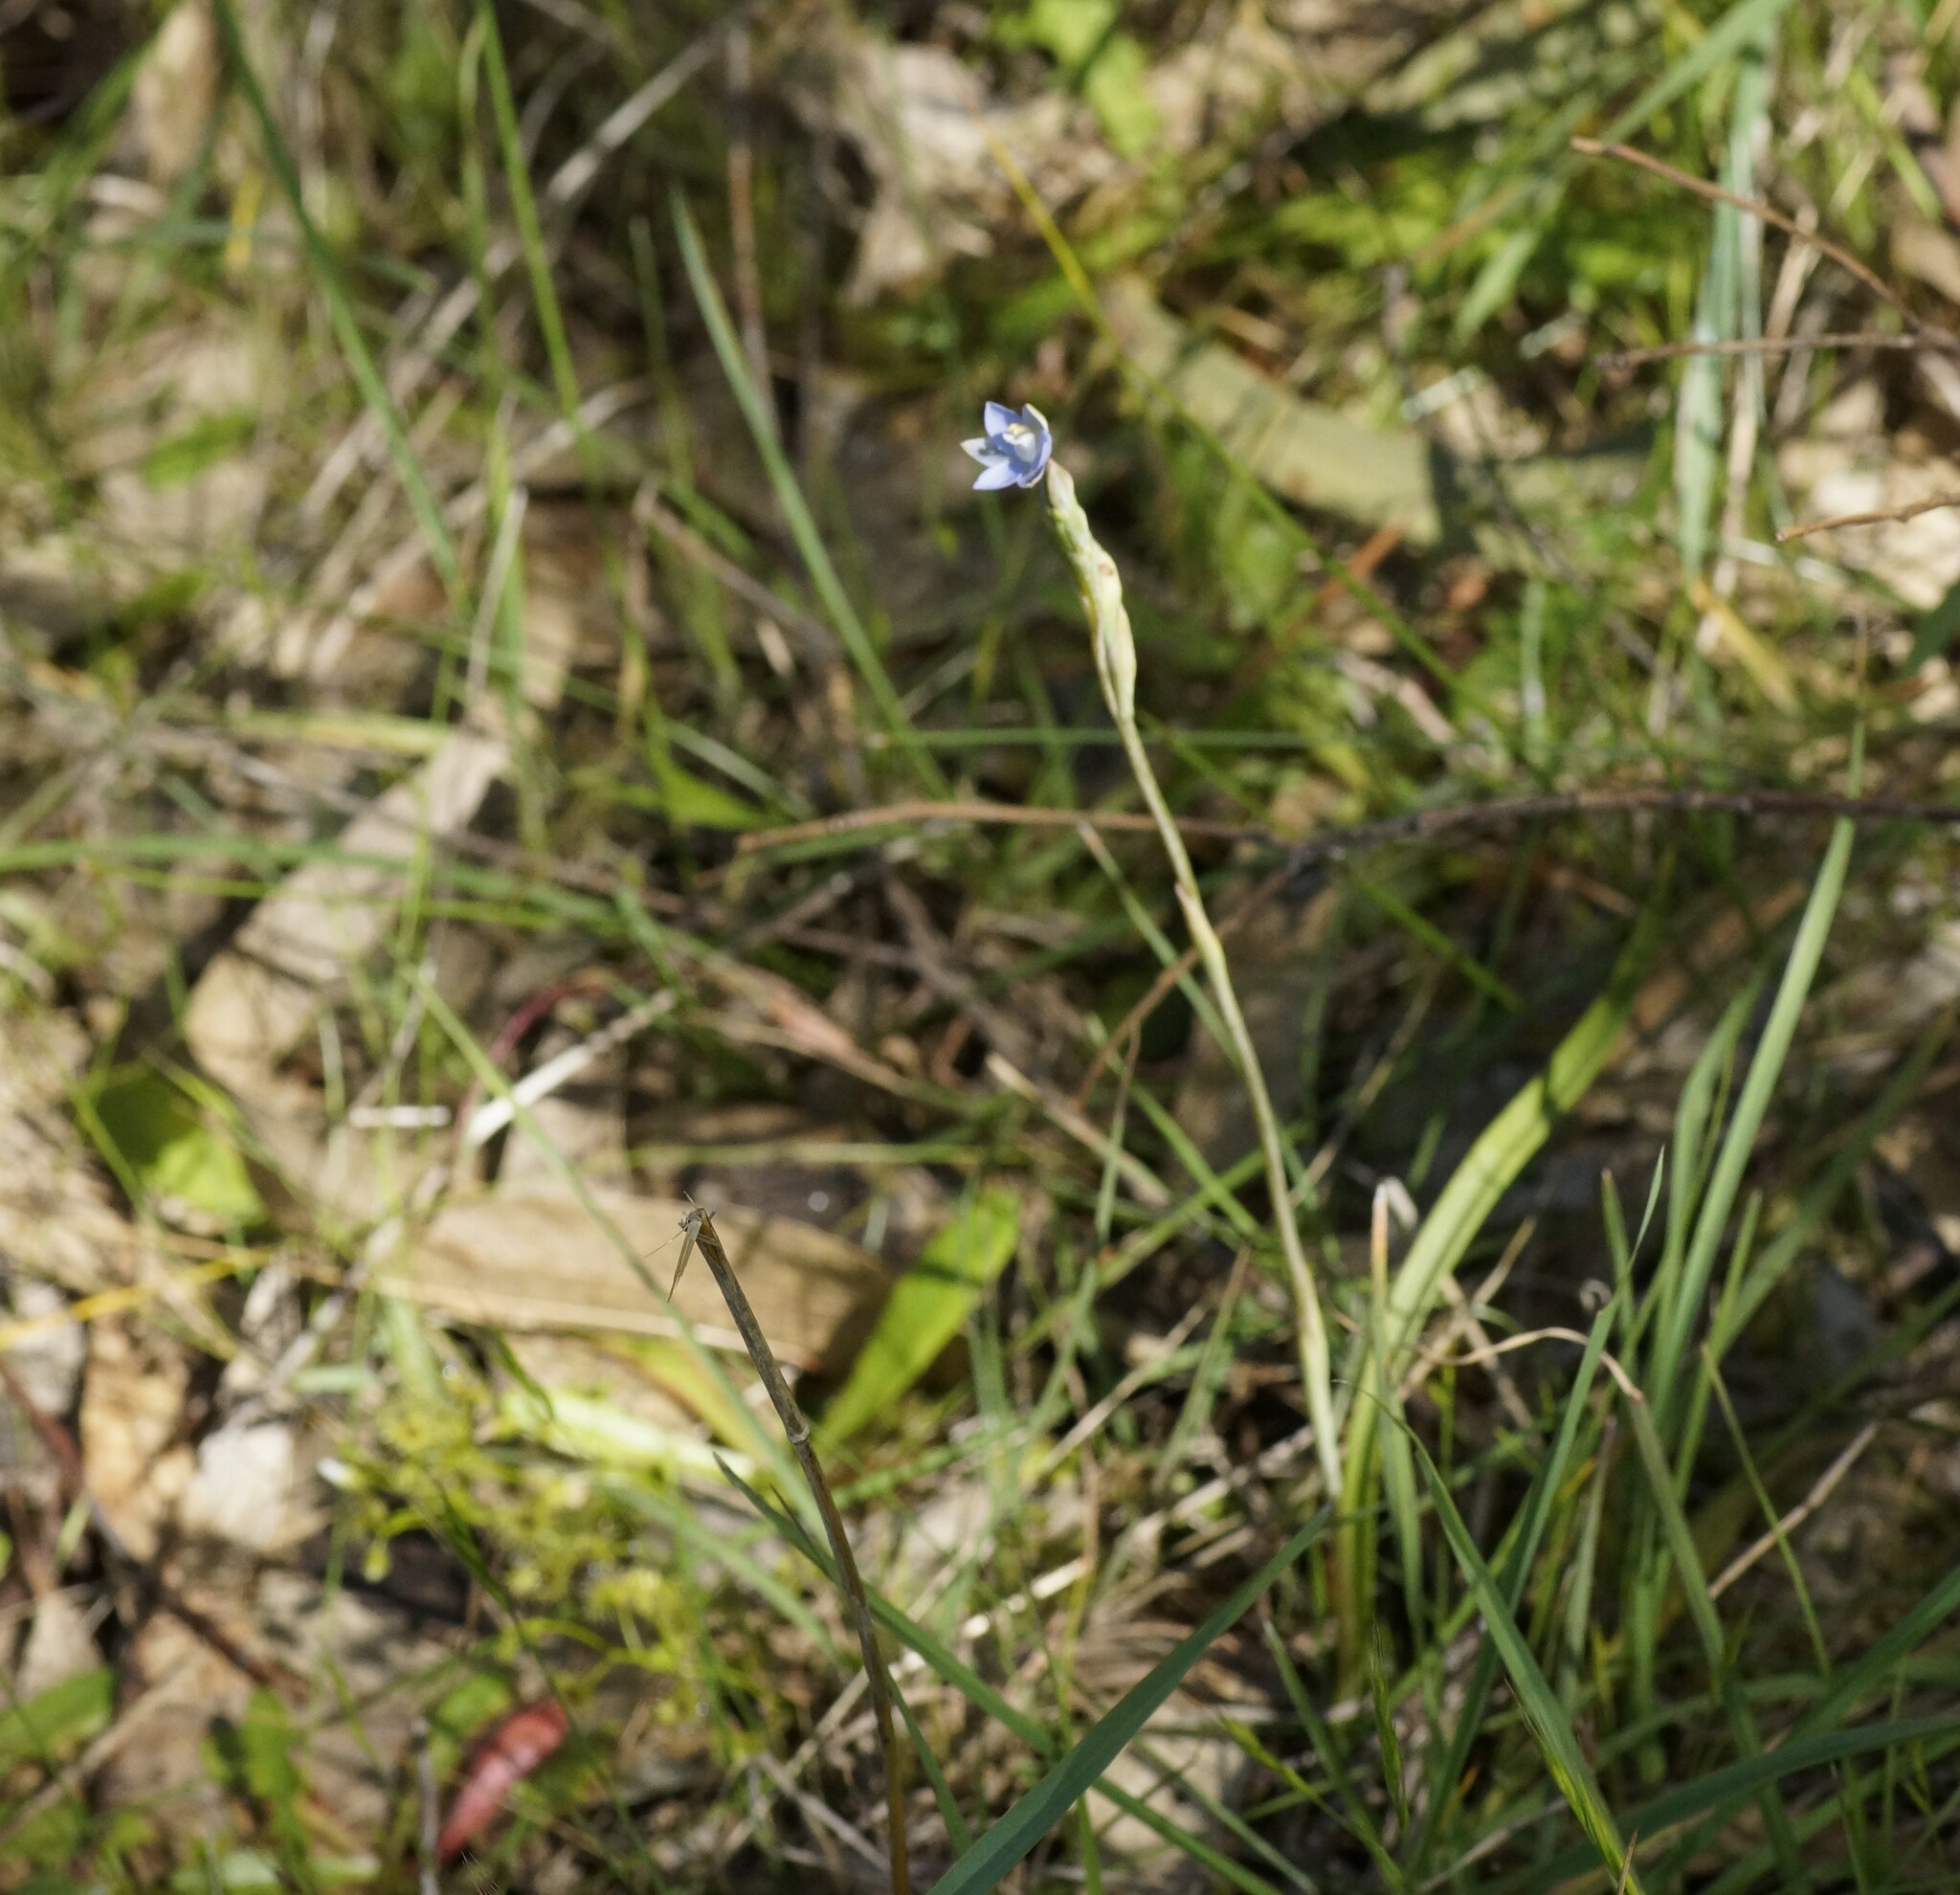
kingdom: Plantae
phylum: Tracheophyta
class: Liliopsida
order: Asparagales
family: Orchidaceae
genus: Thelymitra
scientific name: Thelymitra peniculata
